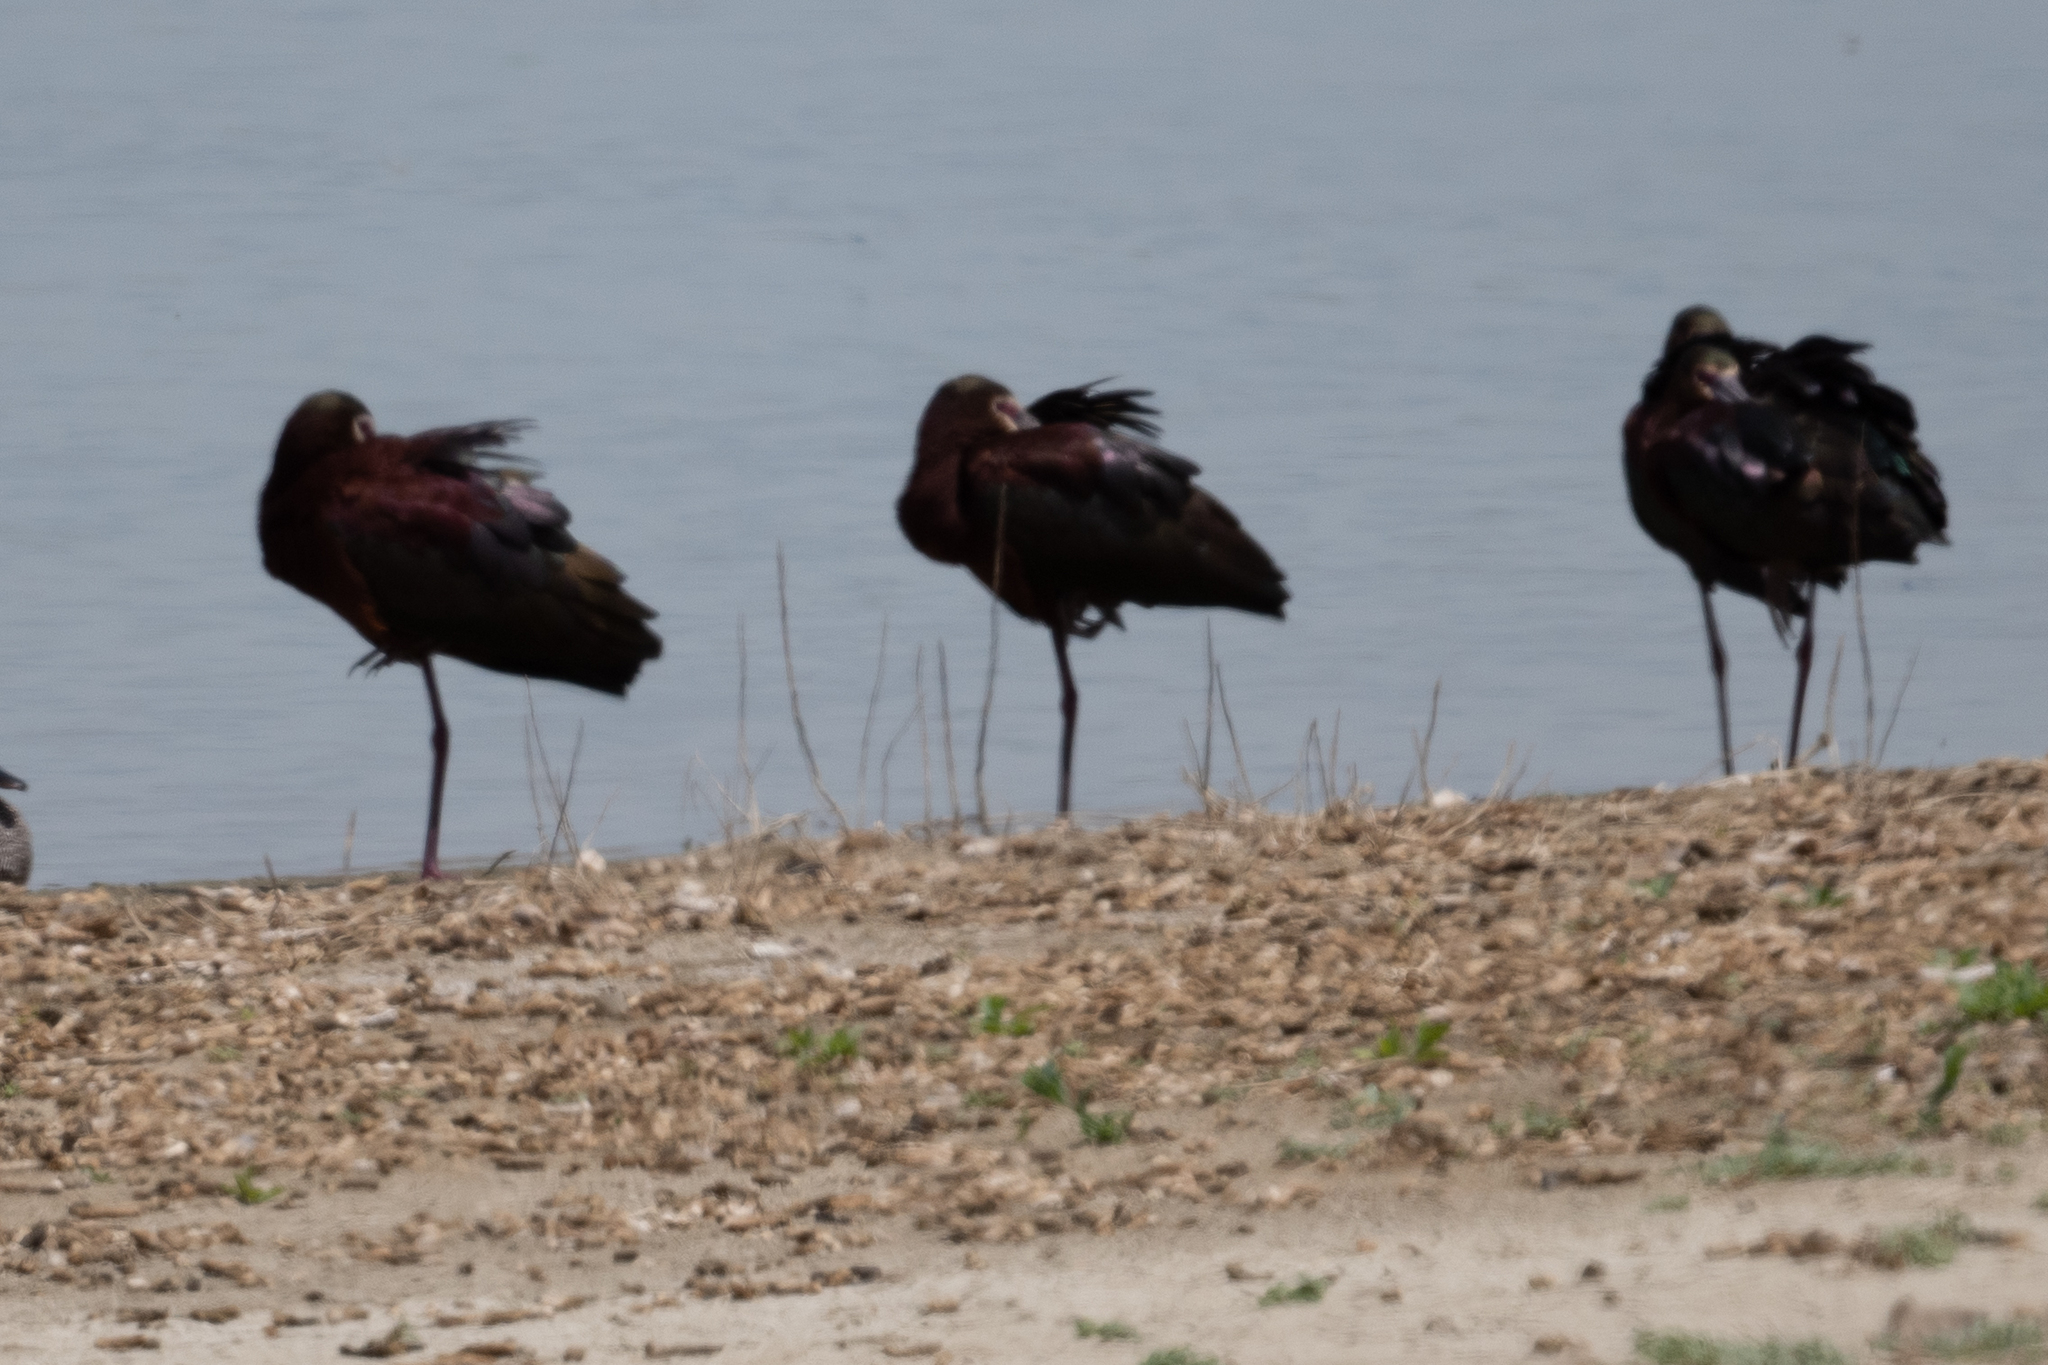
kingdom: Animalia
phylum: Chordata
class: Aves
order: Pelecaniformes
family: Threskiornithidae
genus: Plegadis
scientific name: Plegadis chihi
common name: White-faced ibis
